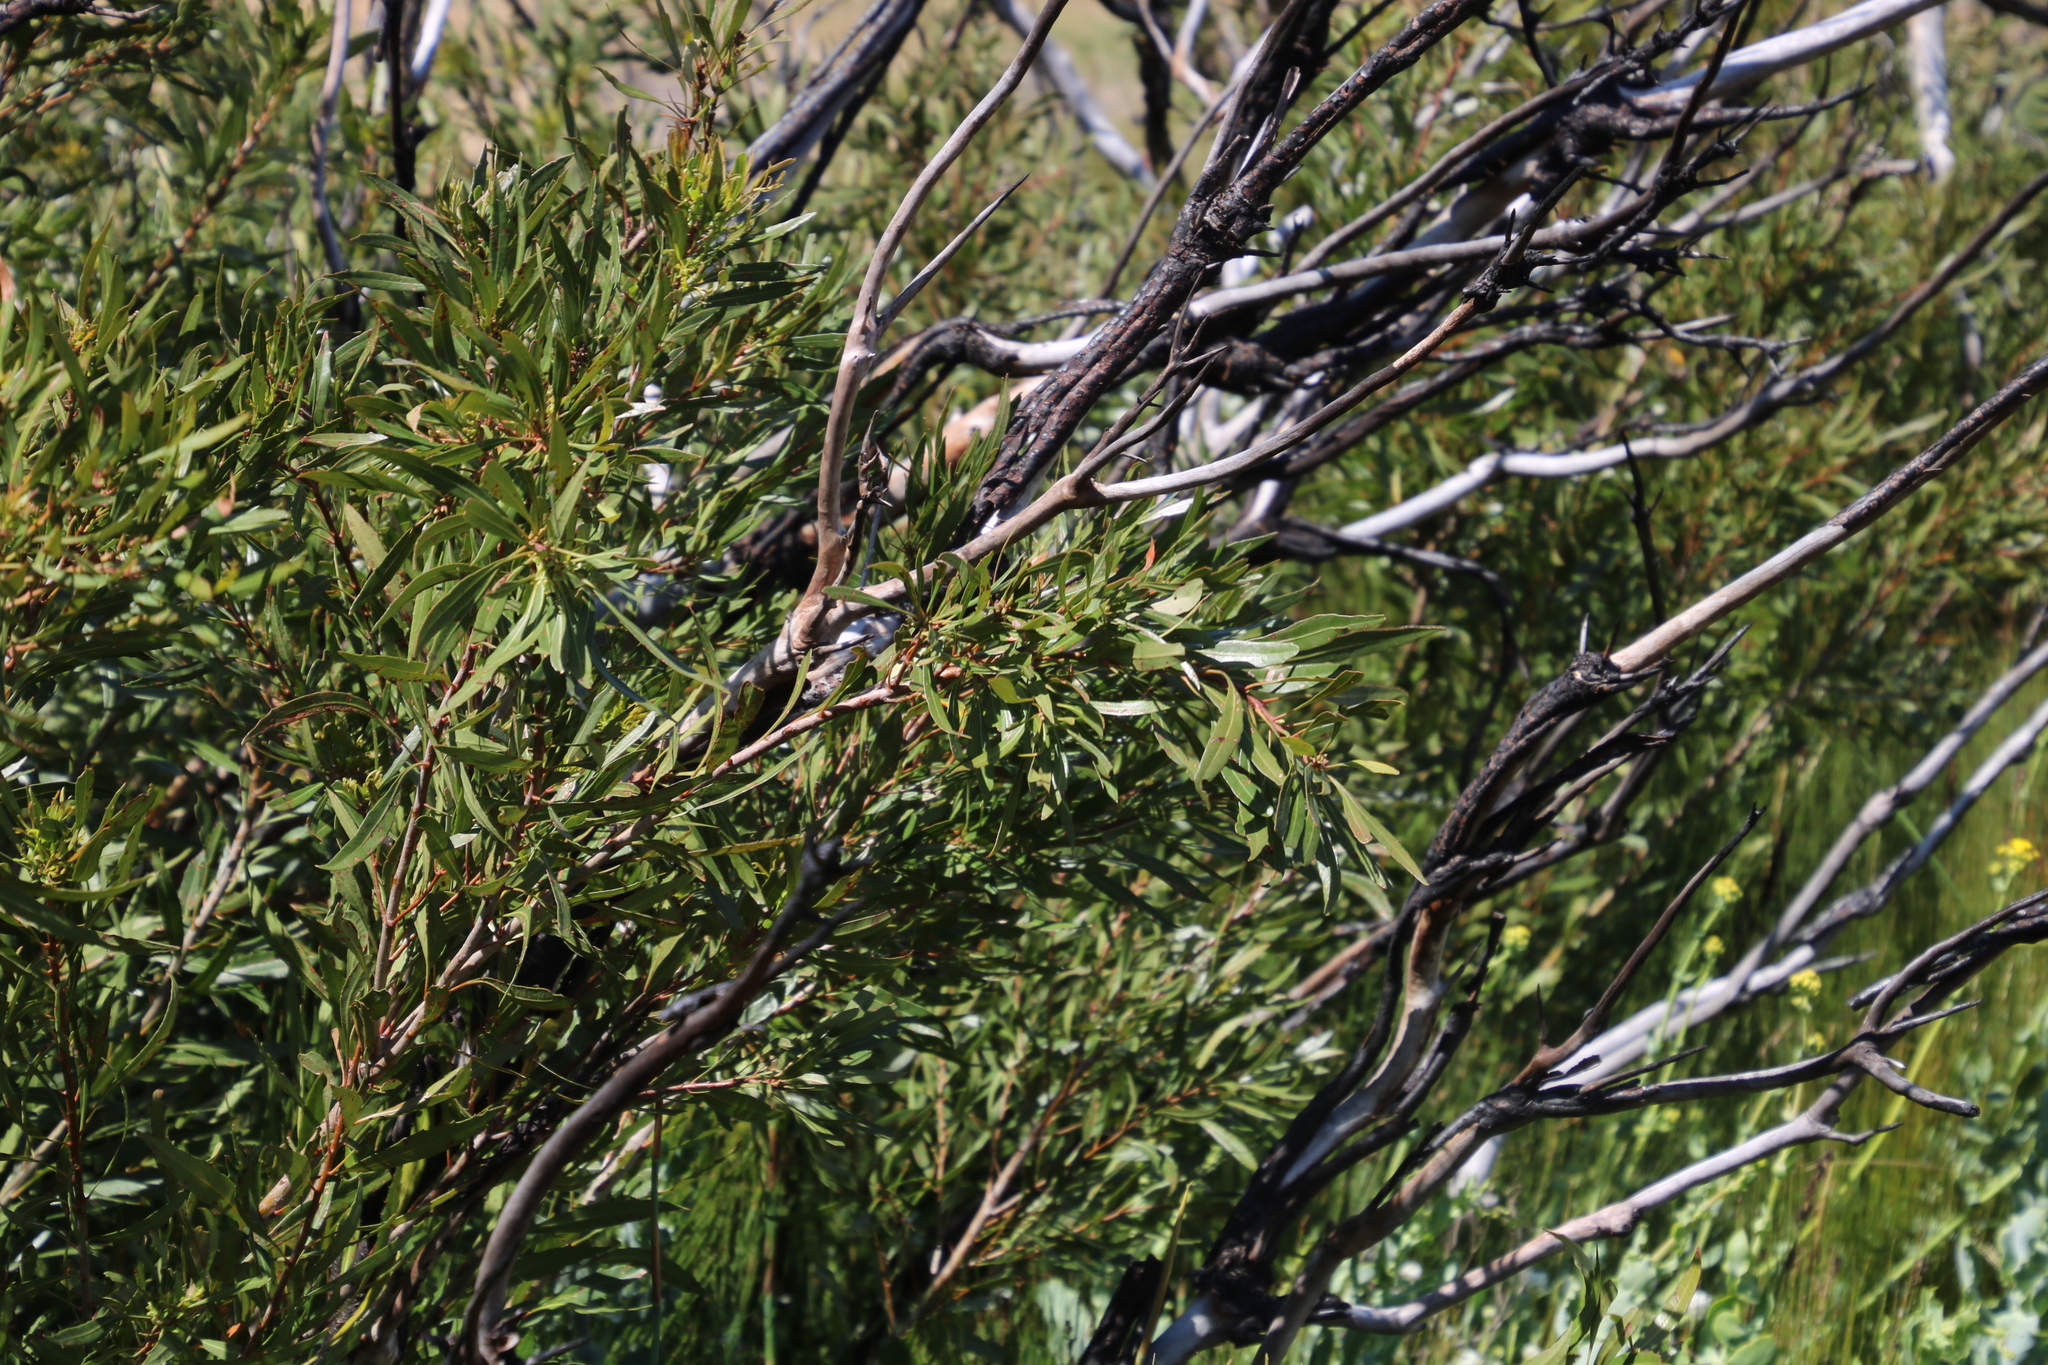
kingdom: Plantae
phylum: Tracheophyta
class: Magnoliopsida
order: Myrtales
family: Myrtaceae
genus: Callistemon
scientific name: Callistemon lanceolatus
